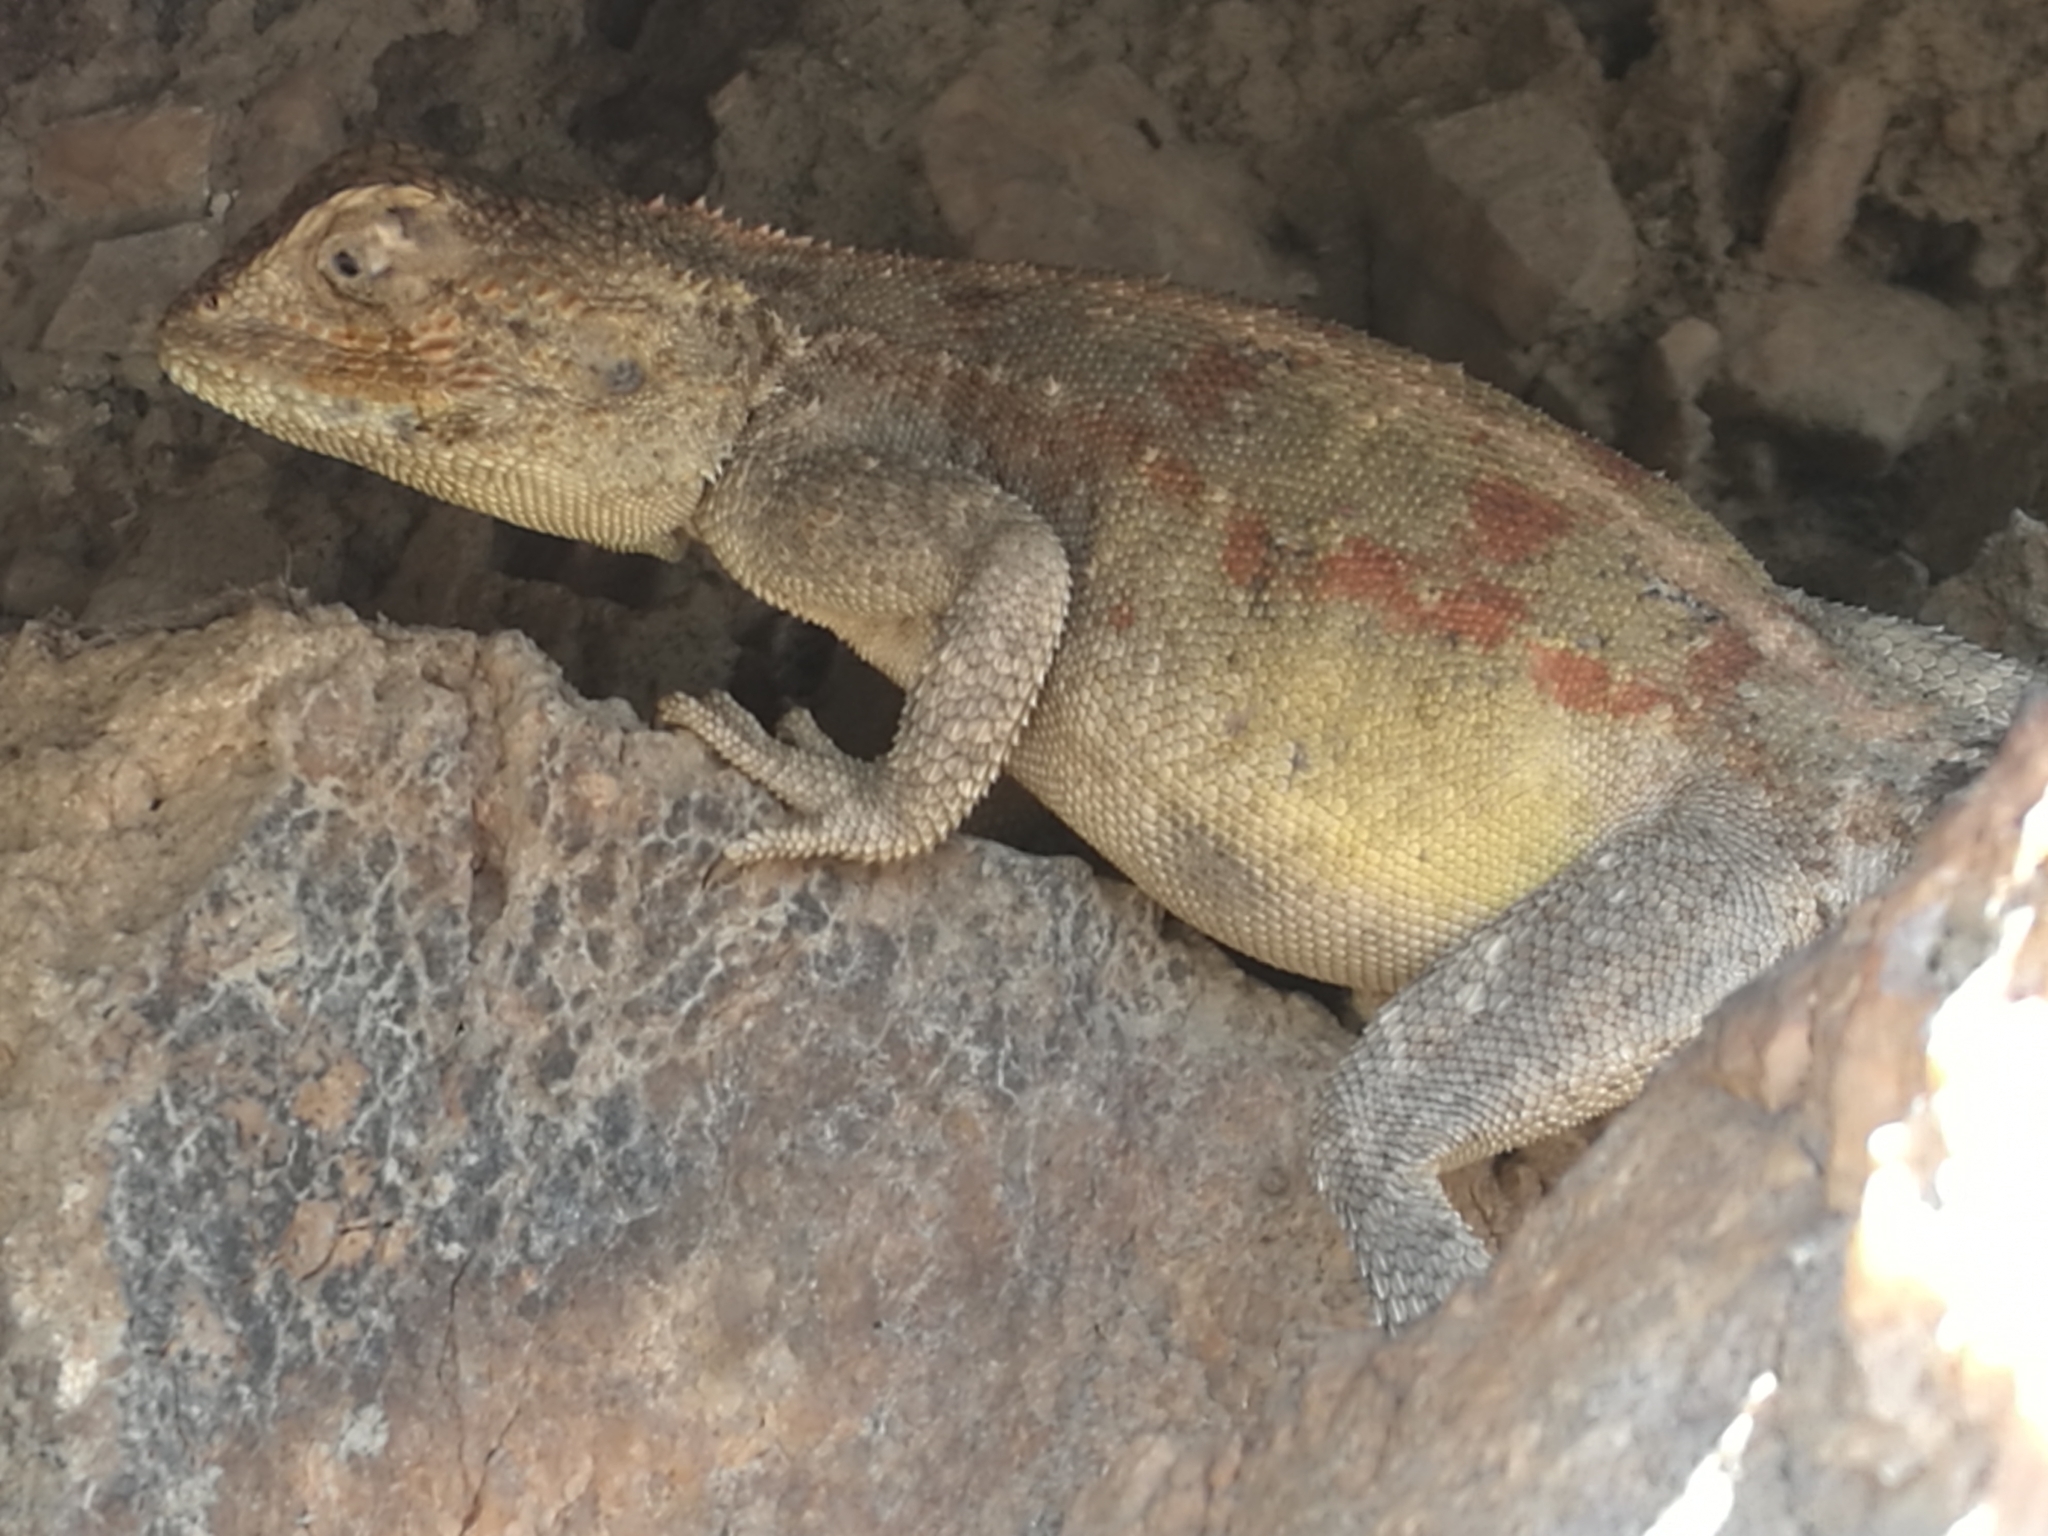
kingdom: Animalia
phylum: Chordata
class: Squamata
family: Agamidae
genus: Agama
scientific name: Agama atra
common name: Southern african rock agama
